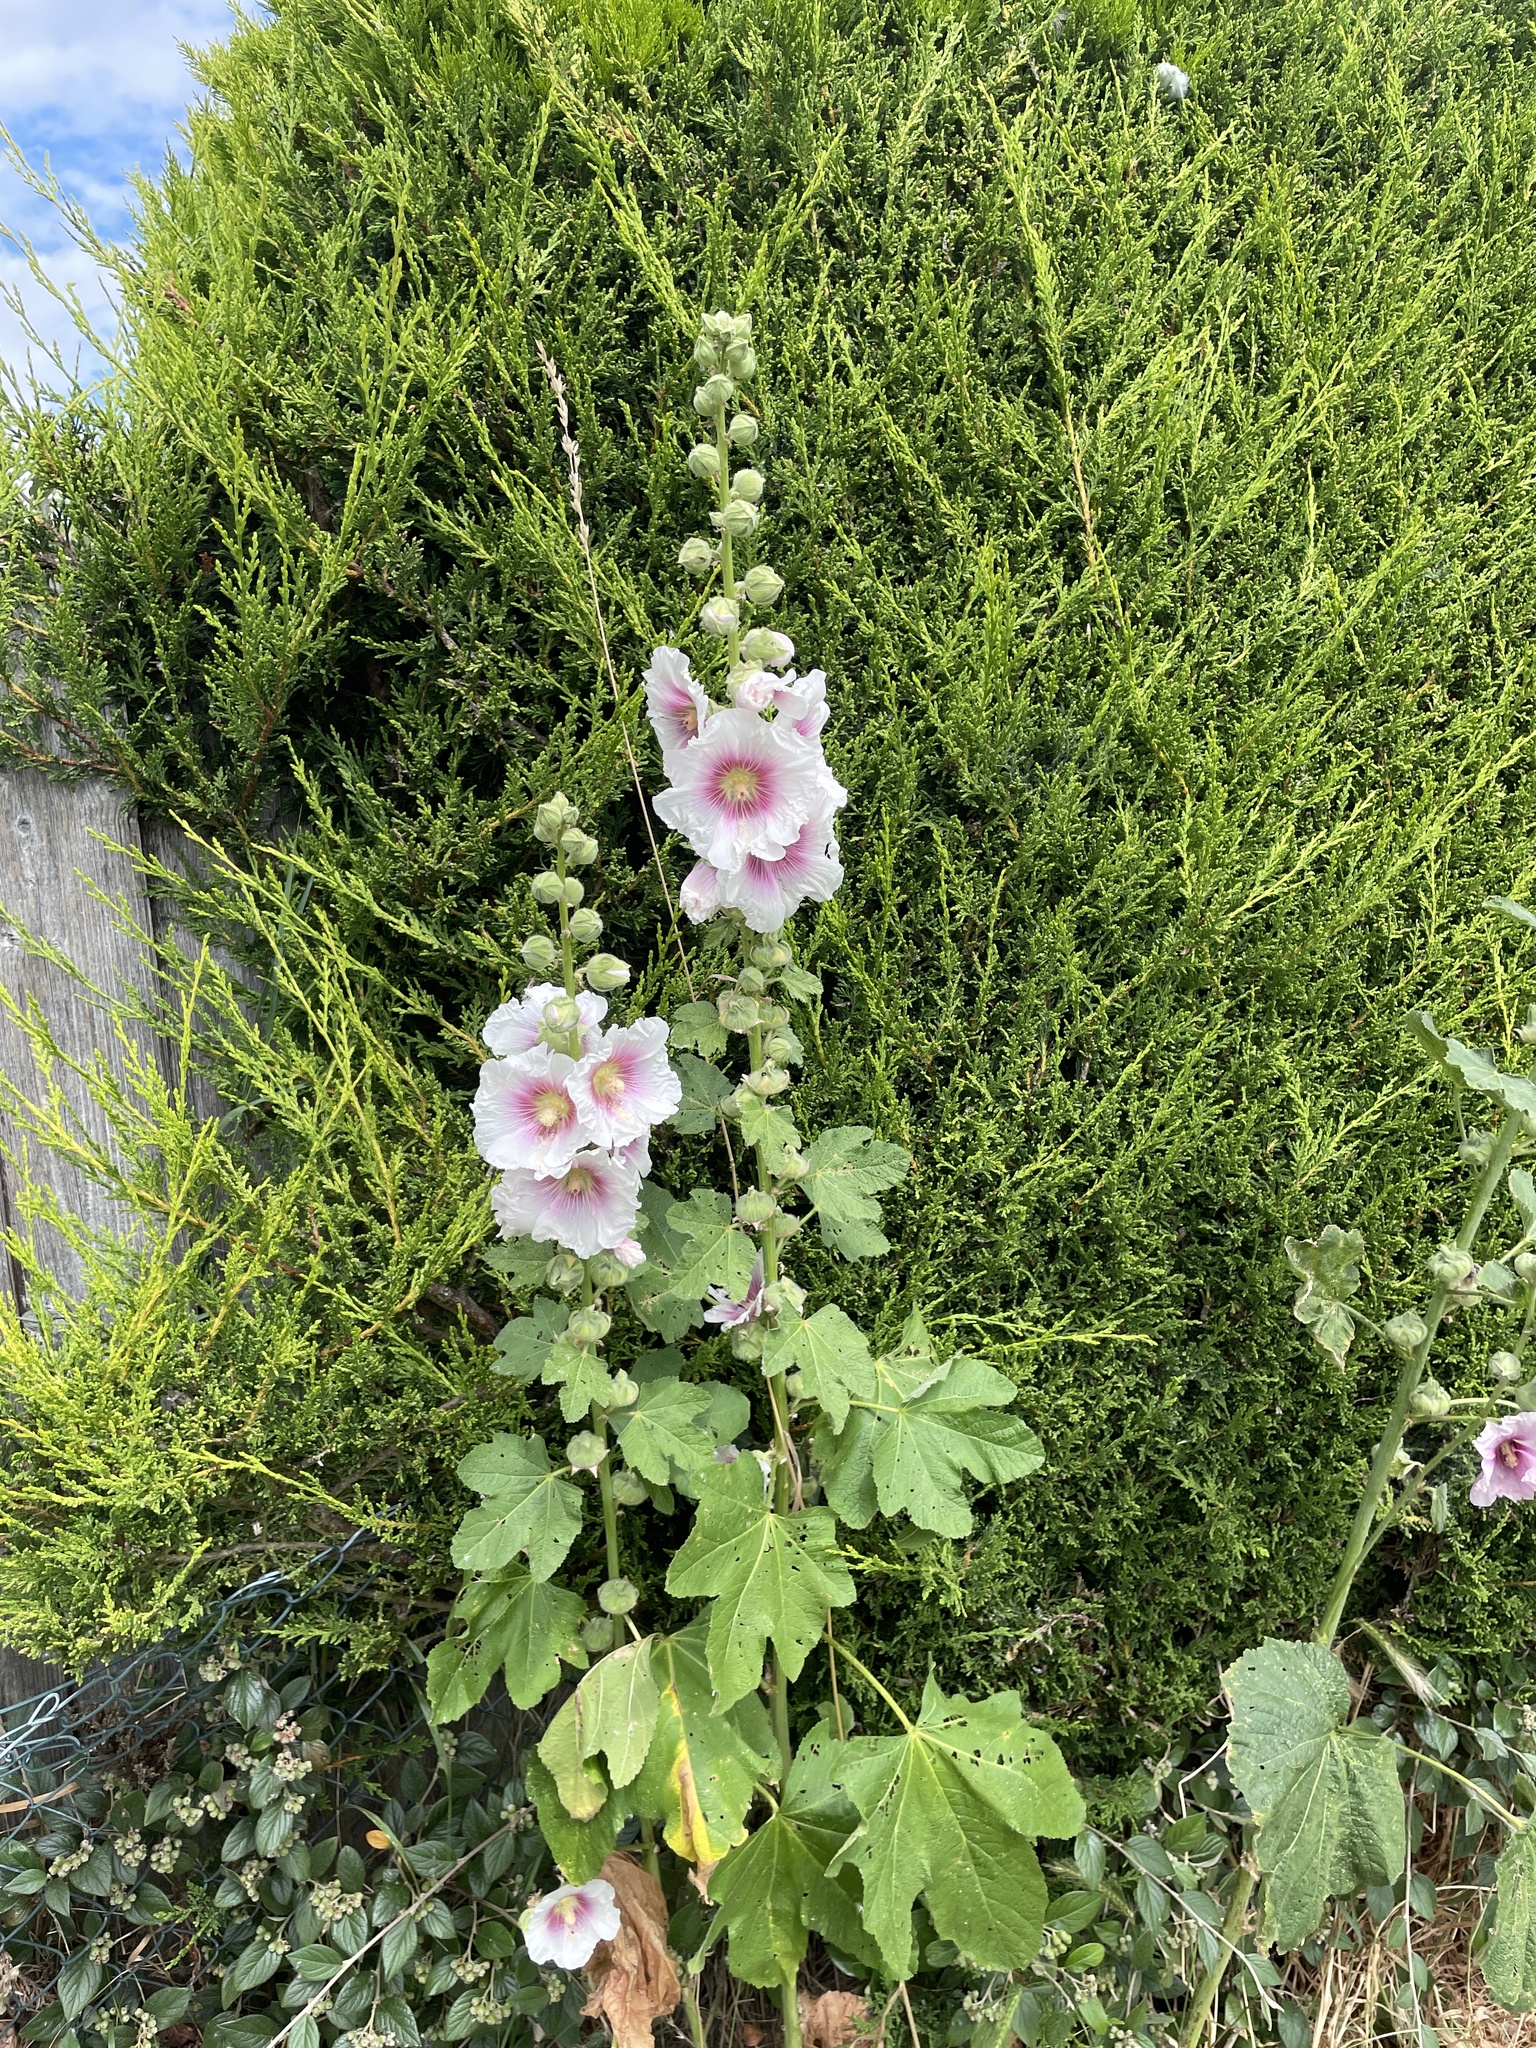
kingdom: Plantae
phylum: Tracheophyta
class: Magnoliopsida
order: Malvales
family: Malvaceae
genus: Alcea
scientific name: Alcea rosea
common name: Hollyhock
